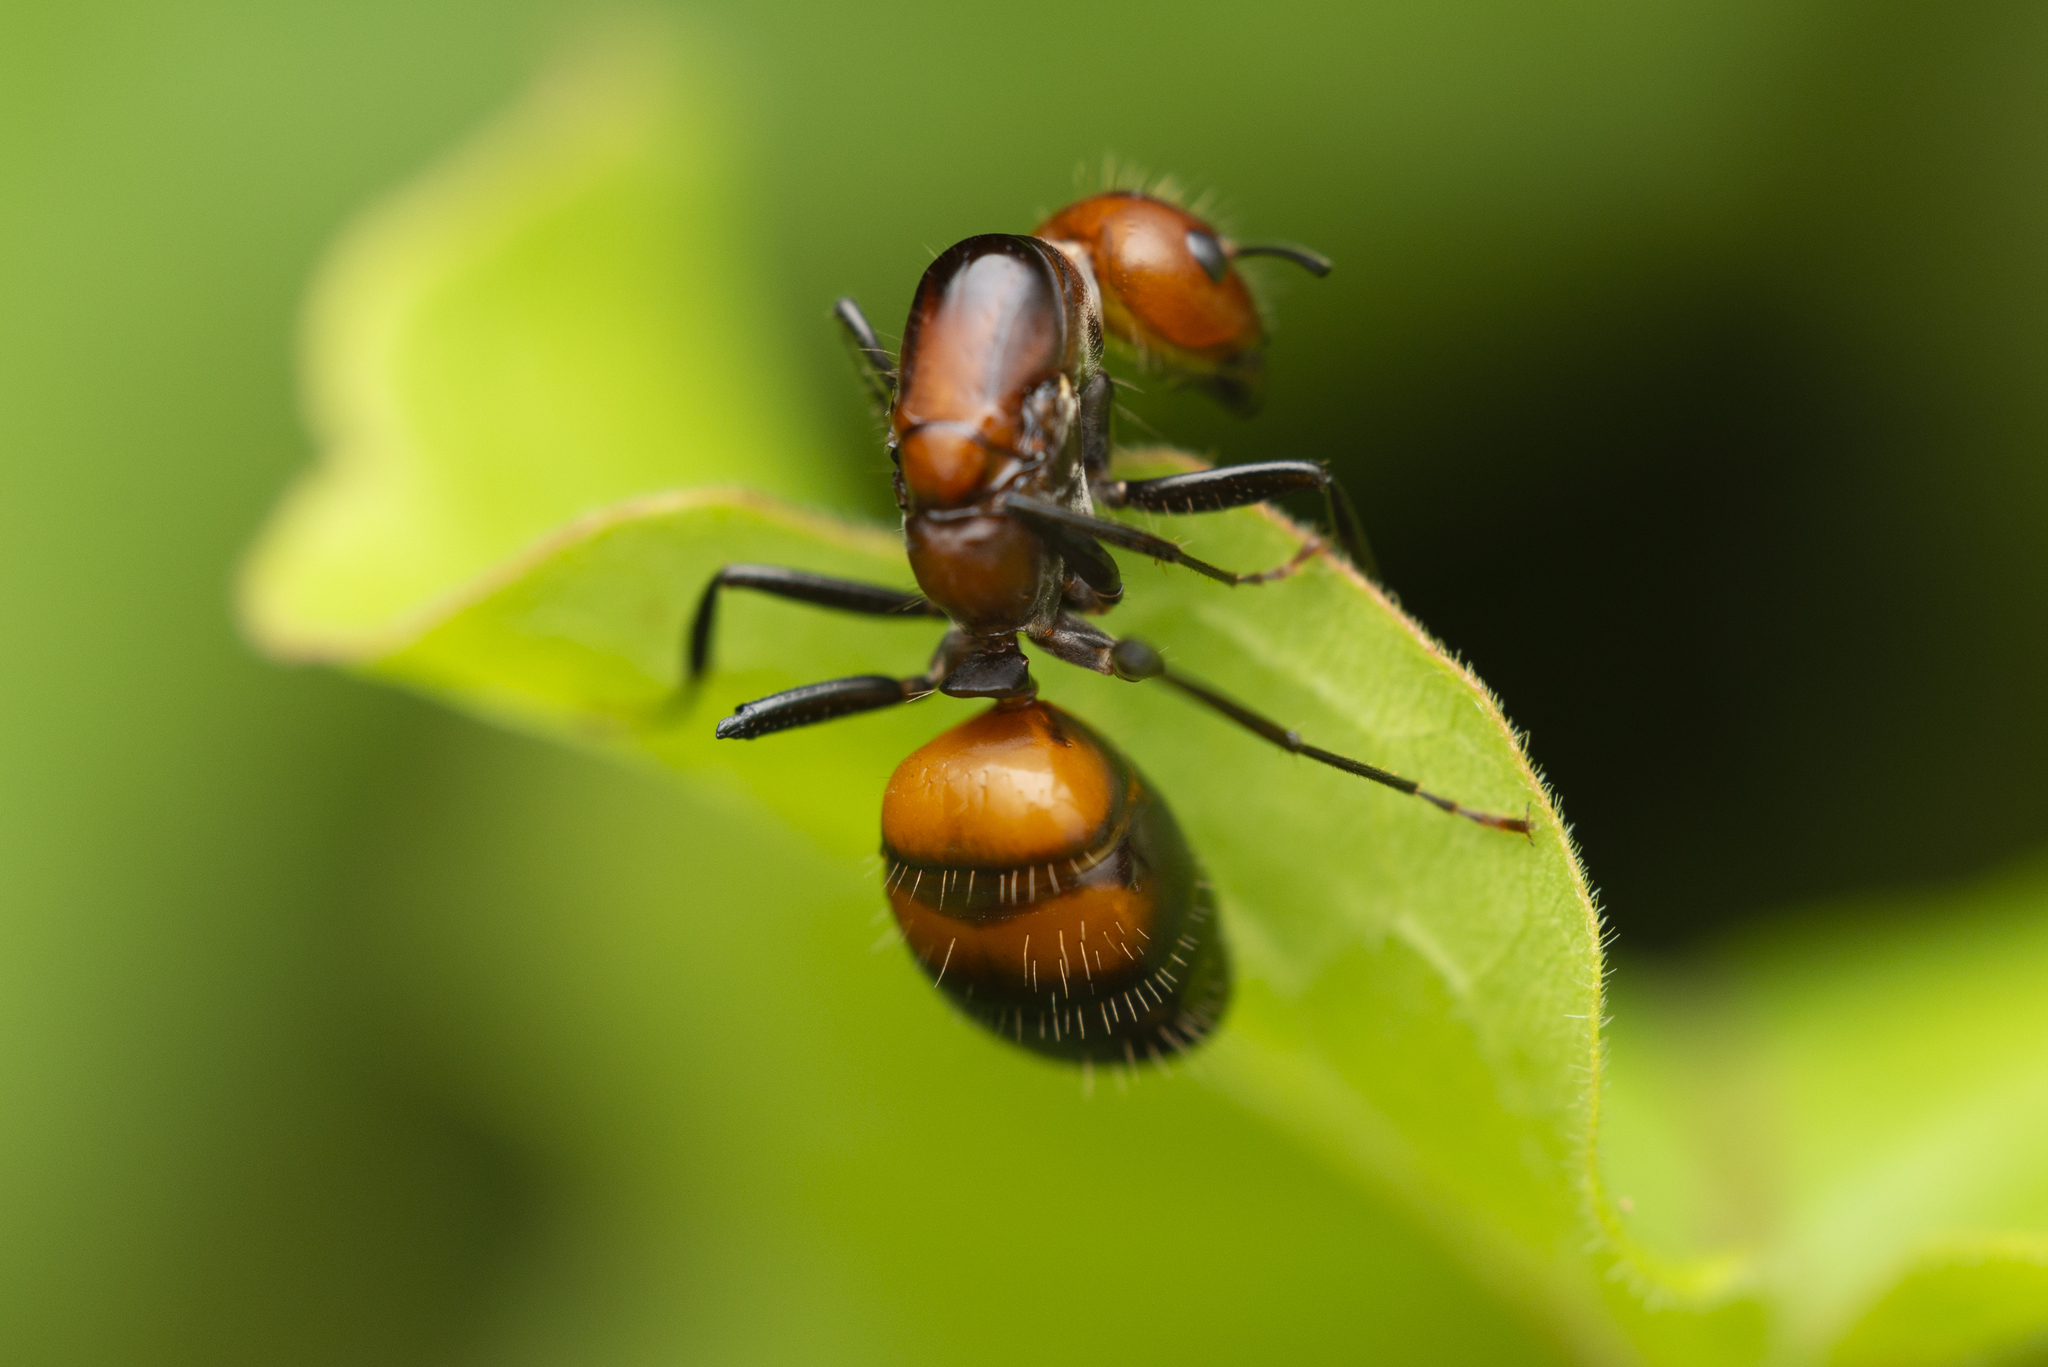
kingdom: Animalia
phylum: Arthropoda
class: Insecta
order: Hymenoptera
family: Formicidae
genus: Camponotus
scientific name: Camponotus nicobarensis
